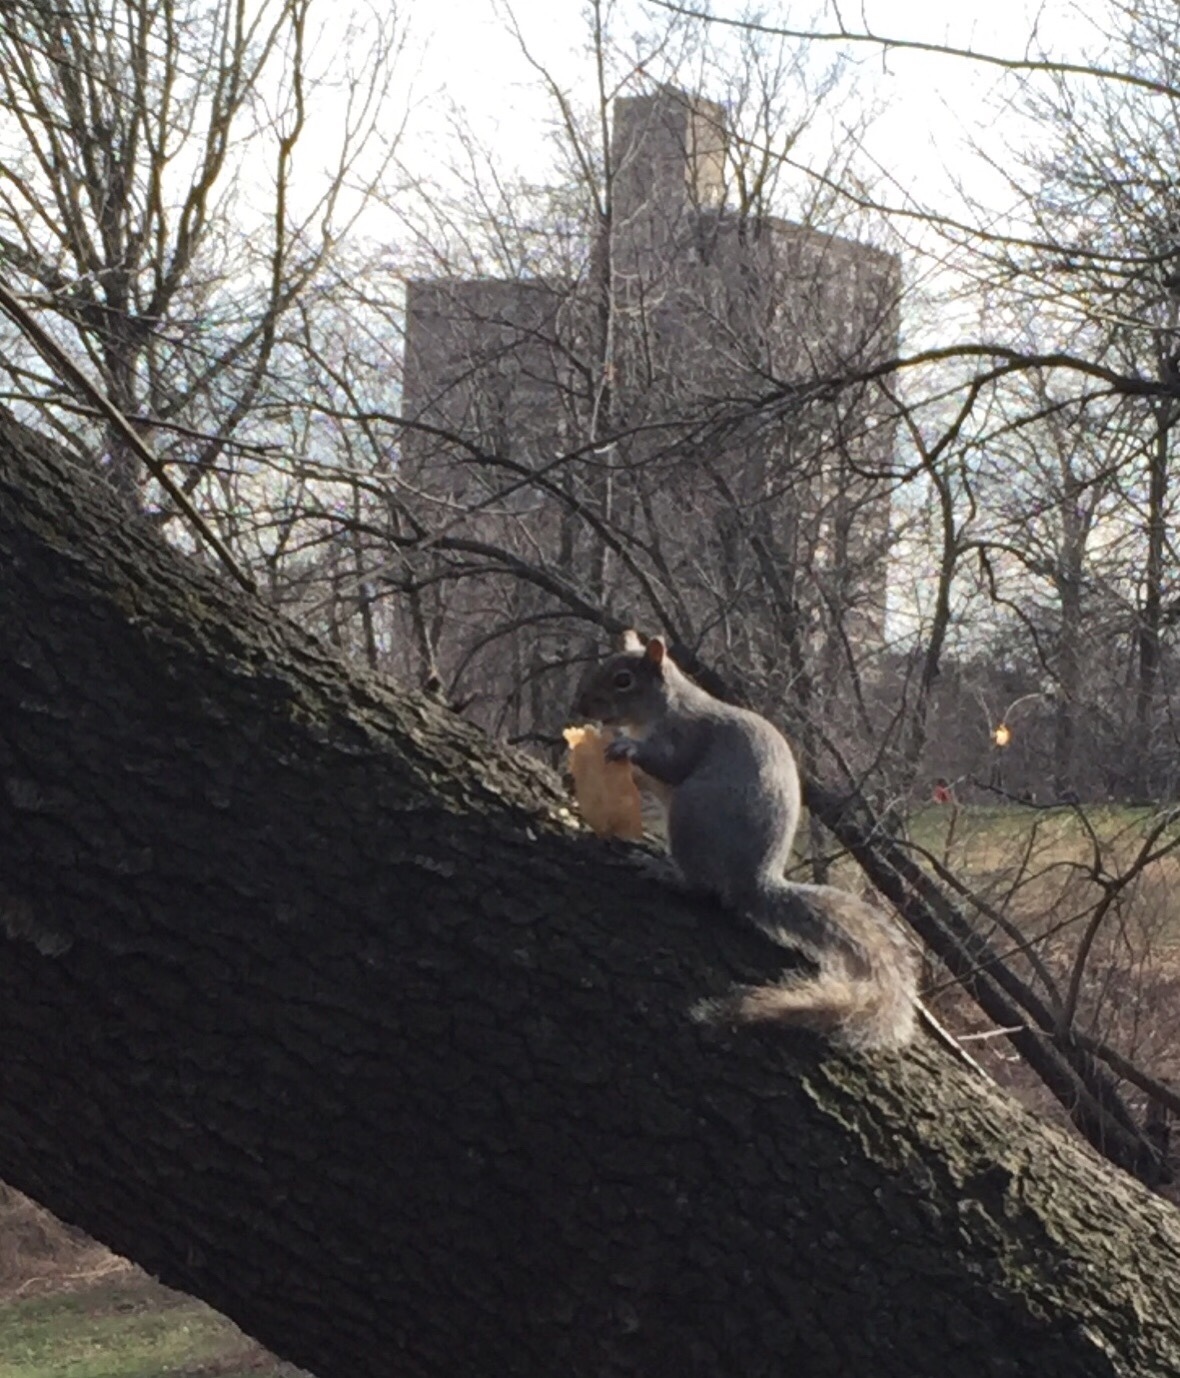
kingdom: Animalia
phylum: Chordata
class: Mammalia
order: Rodentia
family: Sciuridae
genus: Sciurus
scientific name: Sciurus carolinensis
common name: Eastern gray squirrel
